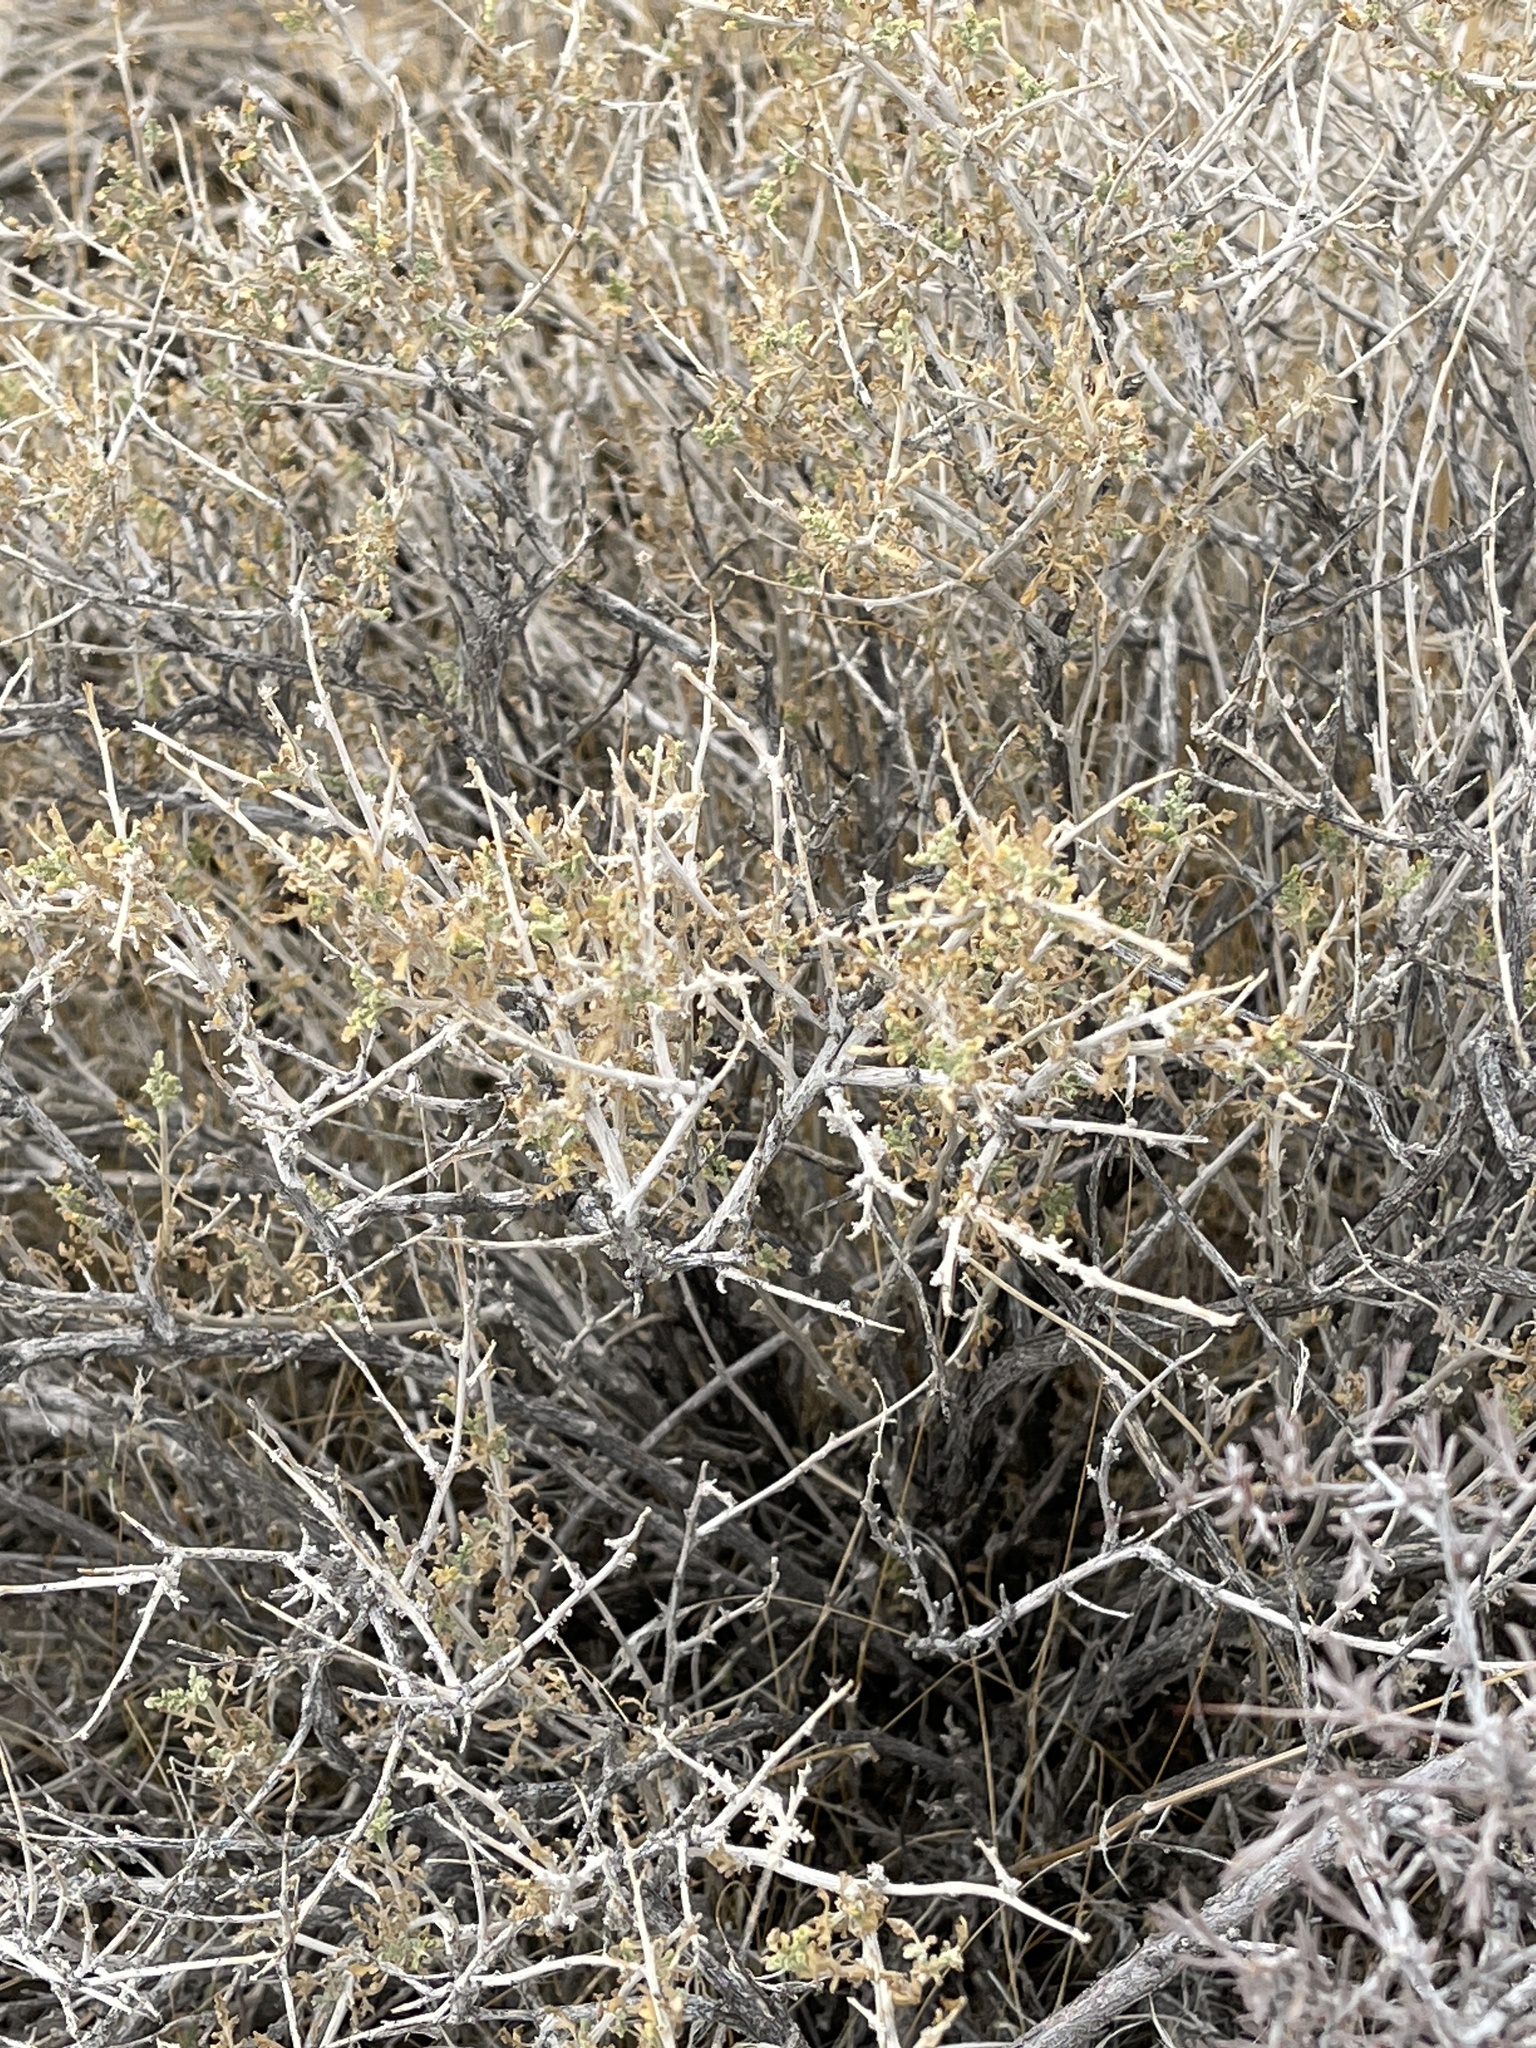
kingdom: Plantae
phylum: Tracheophyta
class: Magnoliopsida
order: Asterales
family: Asteraceae
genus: Ambrosia
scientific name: Ambrosia dumosa
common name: Bur-sage
